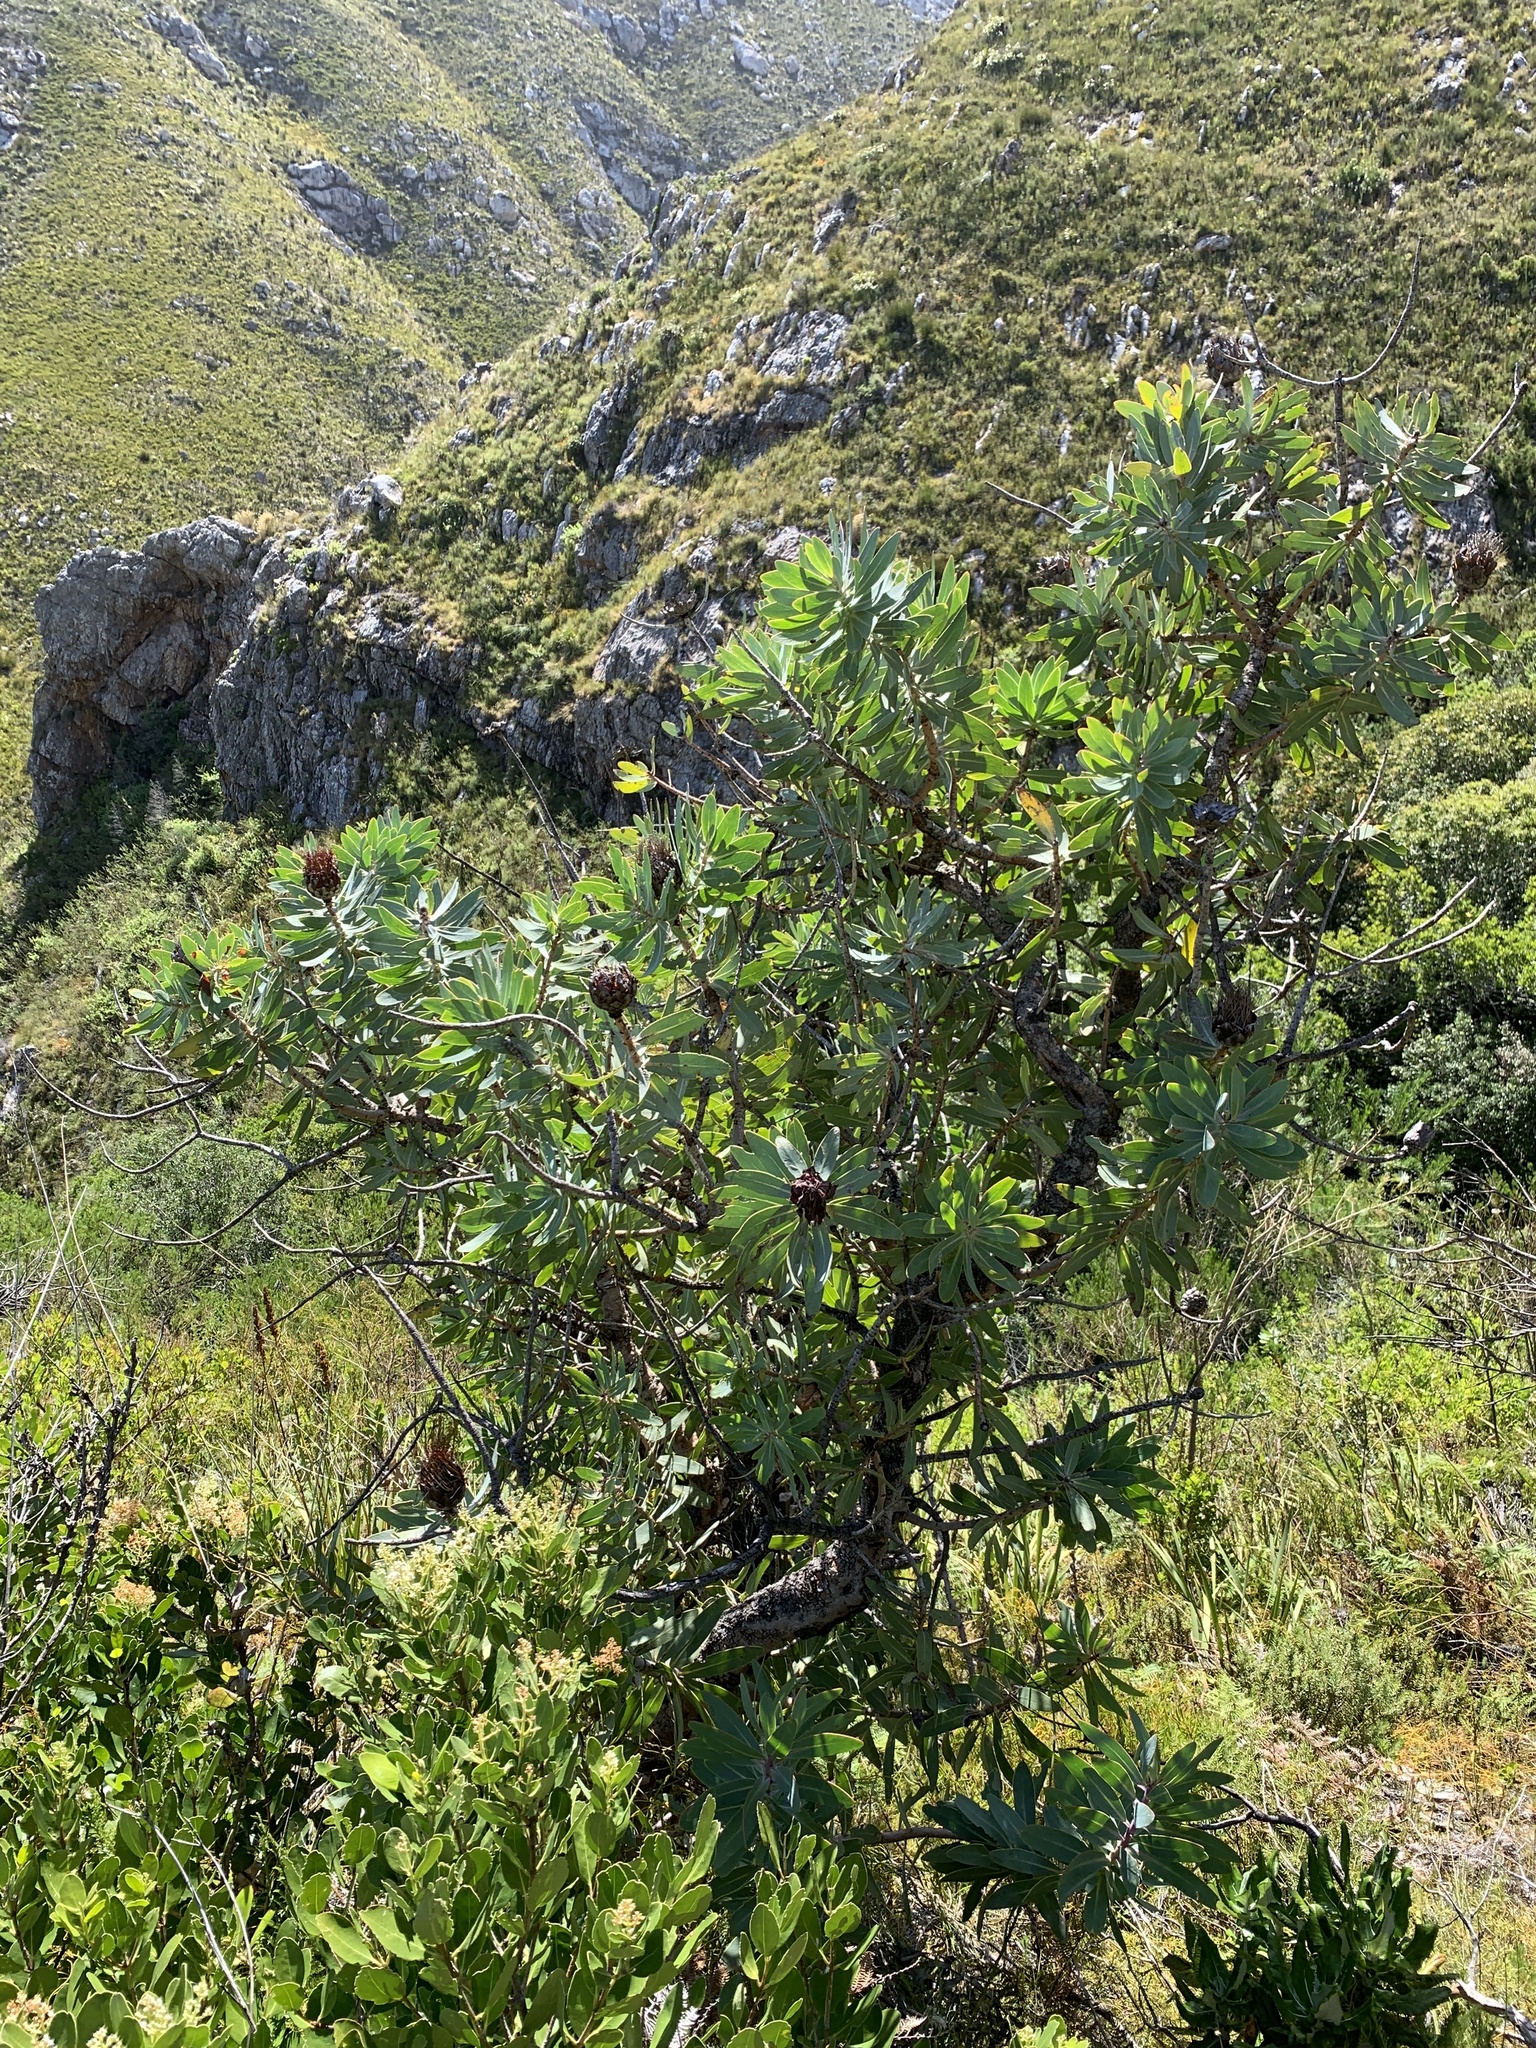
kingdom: Plantae
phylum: Tracheophyta
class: Magnoliopsida
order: Proteales
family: Proteaceae
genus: Protea
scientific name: Protea nitida
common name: Tree protea
